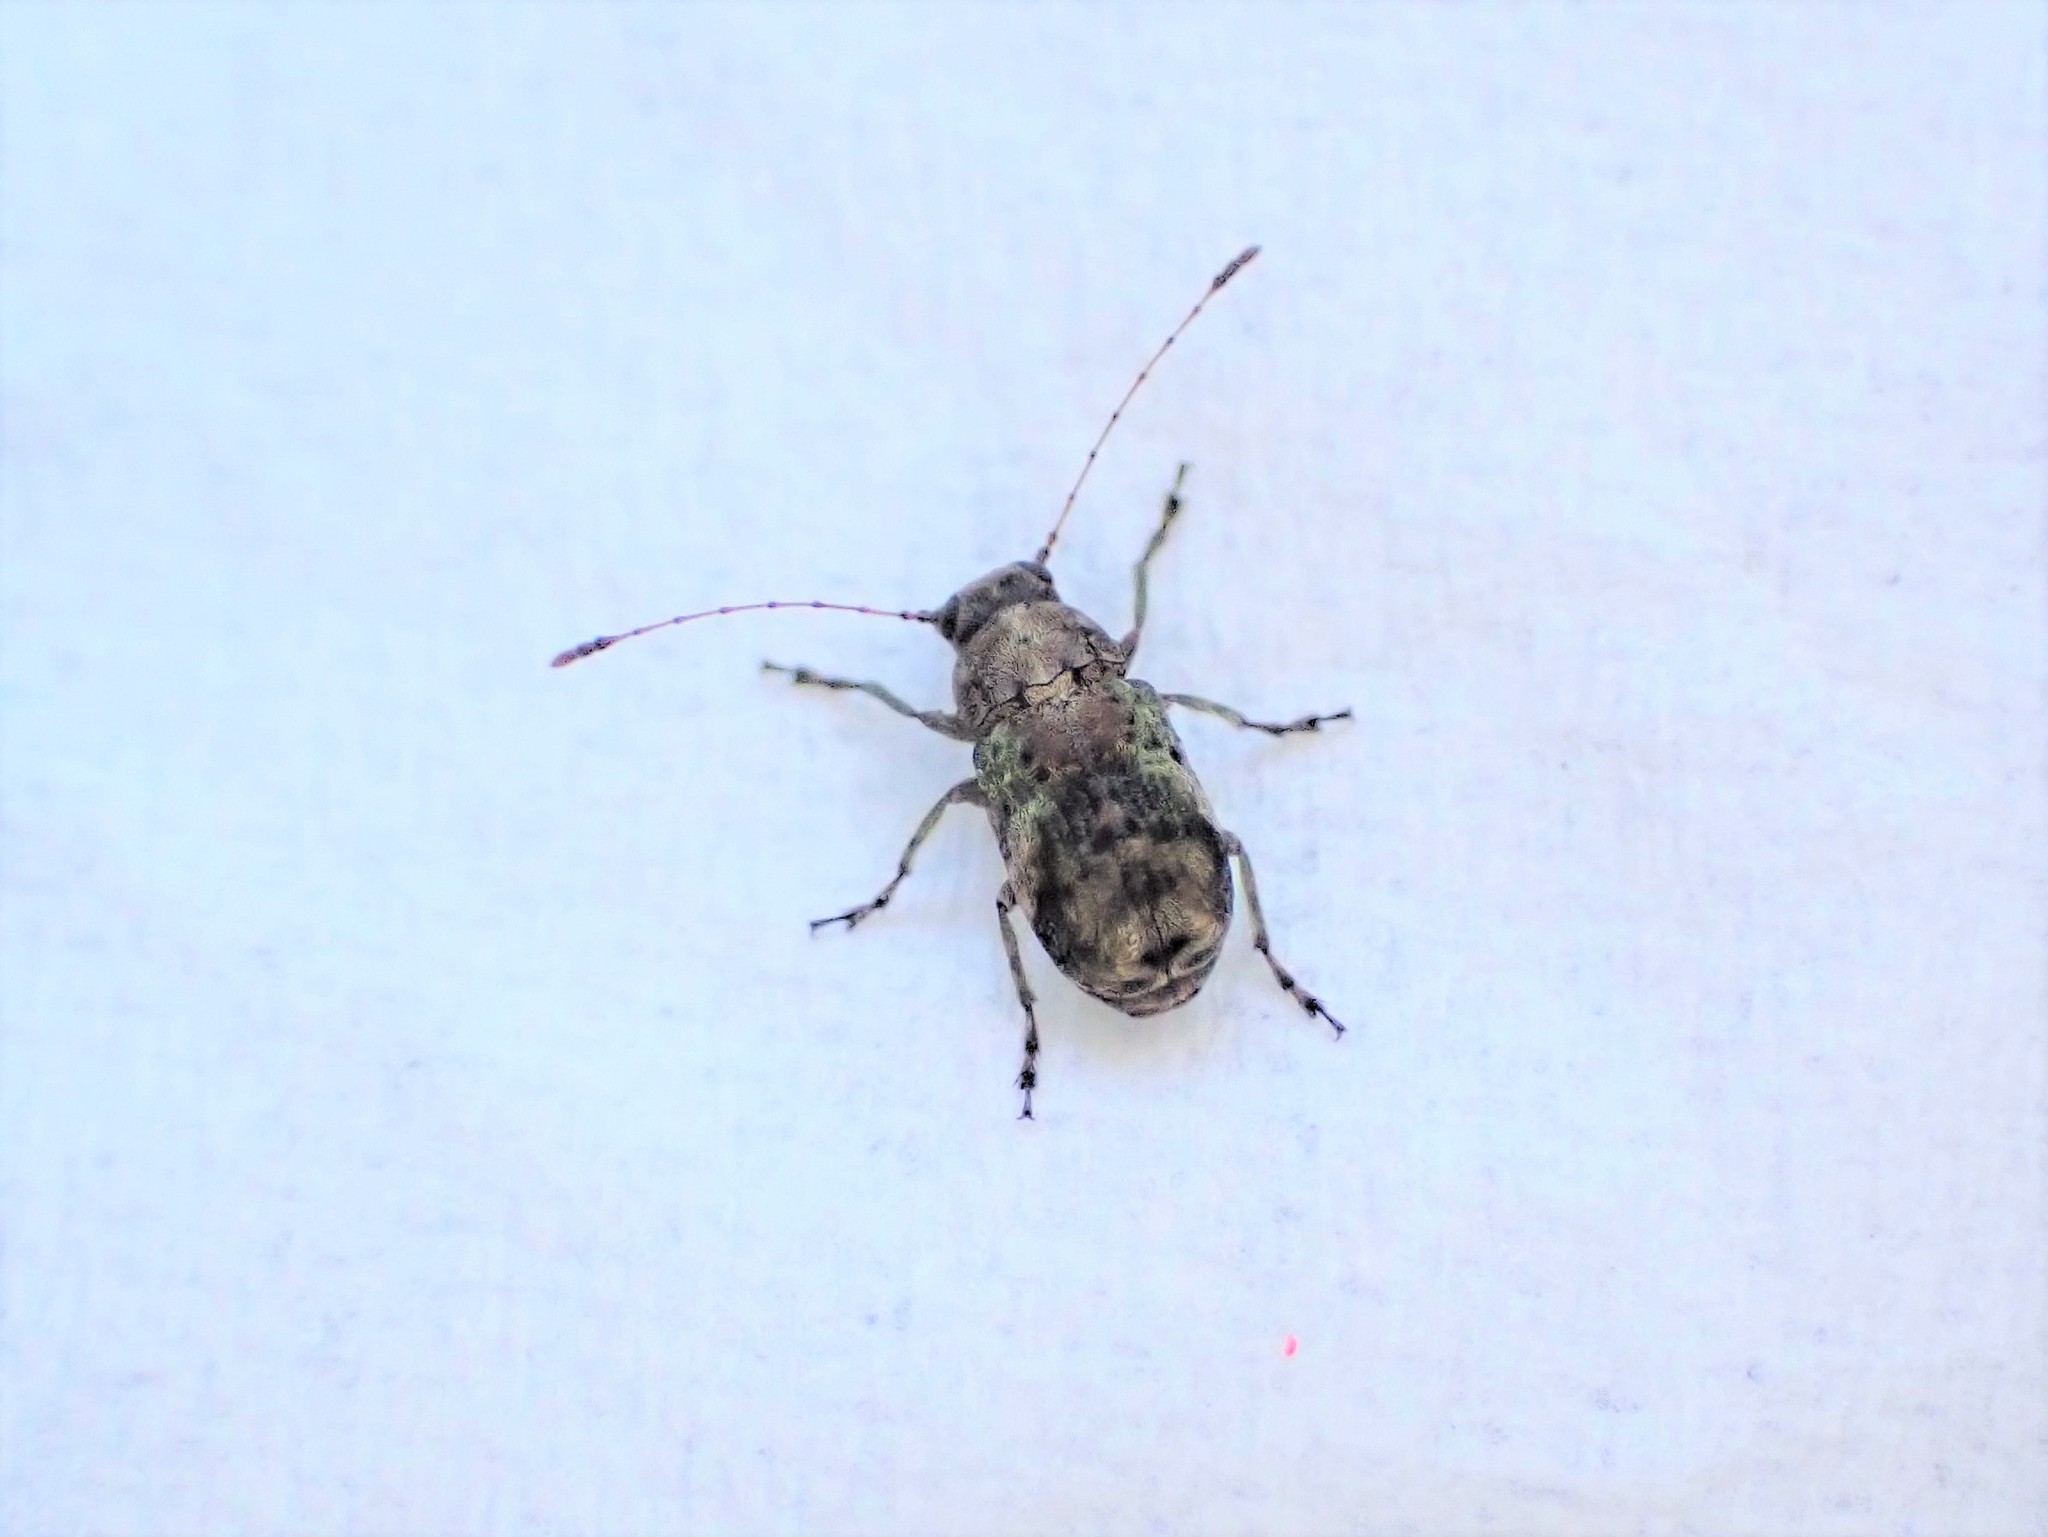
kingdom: Animalia
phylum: Arthropoda
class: Insecta
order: Coleoptera
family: Anthribidae
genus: Hoherius
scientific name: Hoherius
